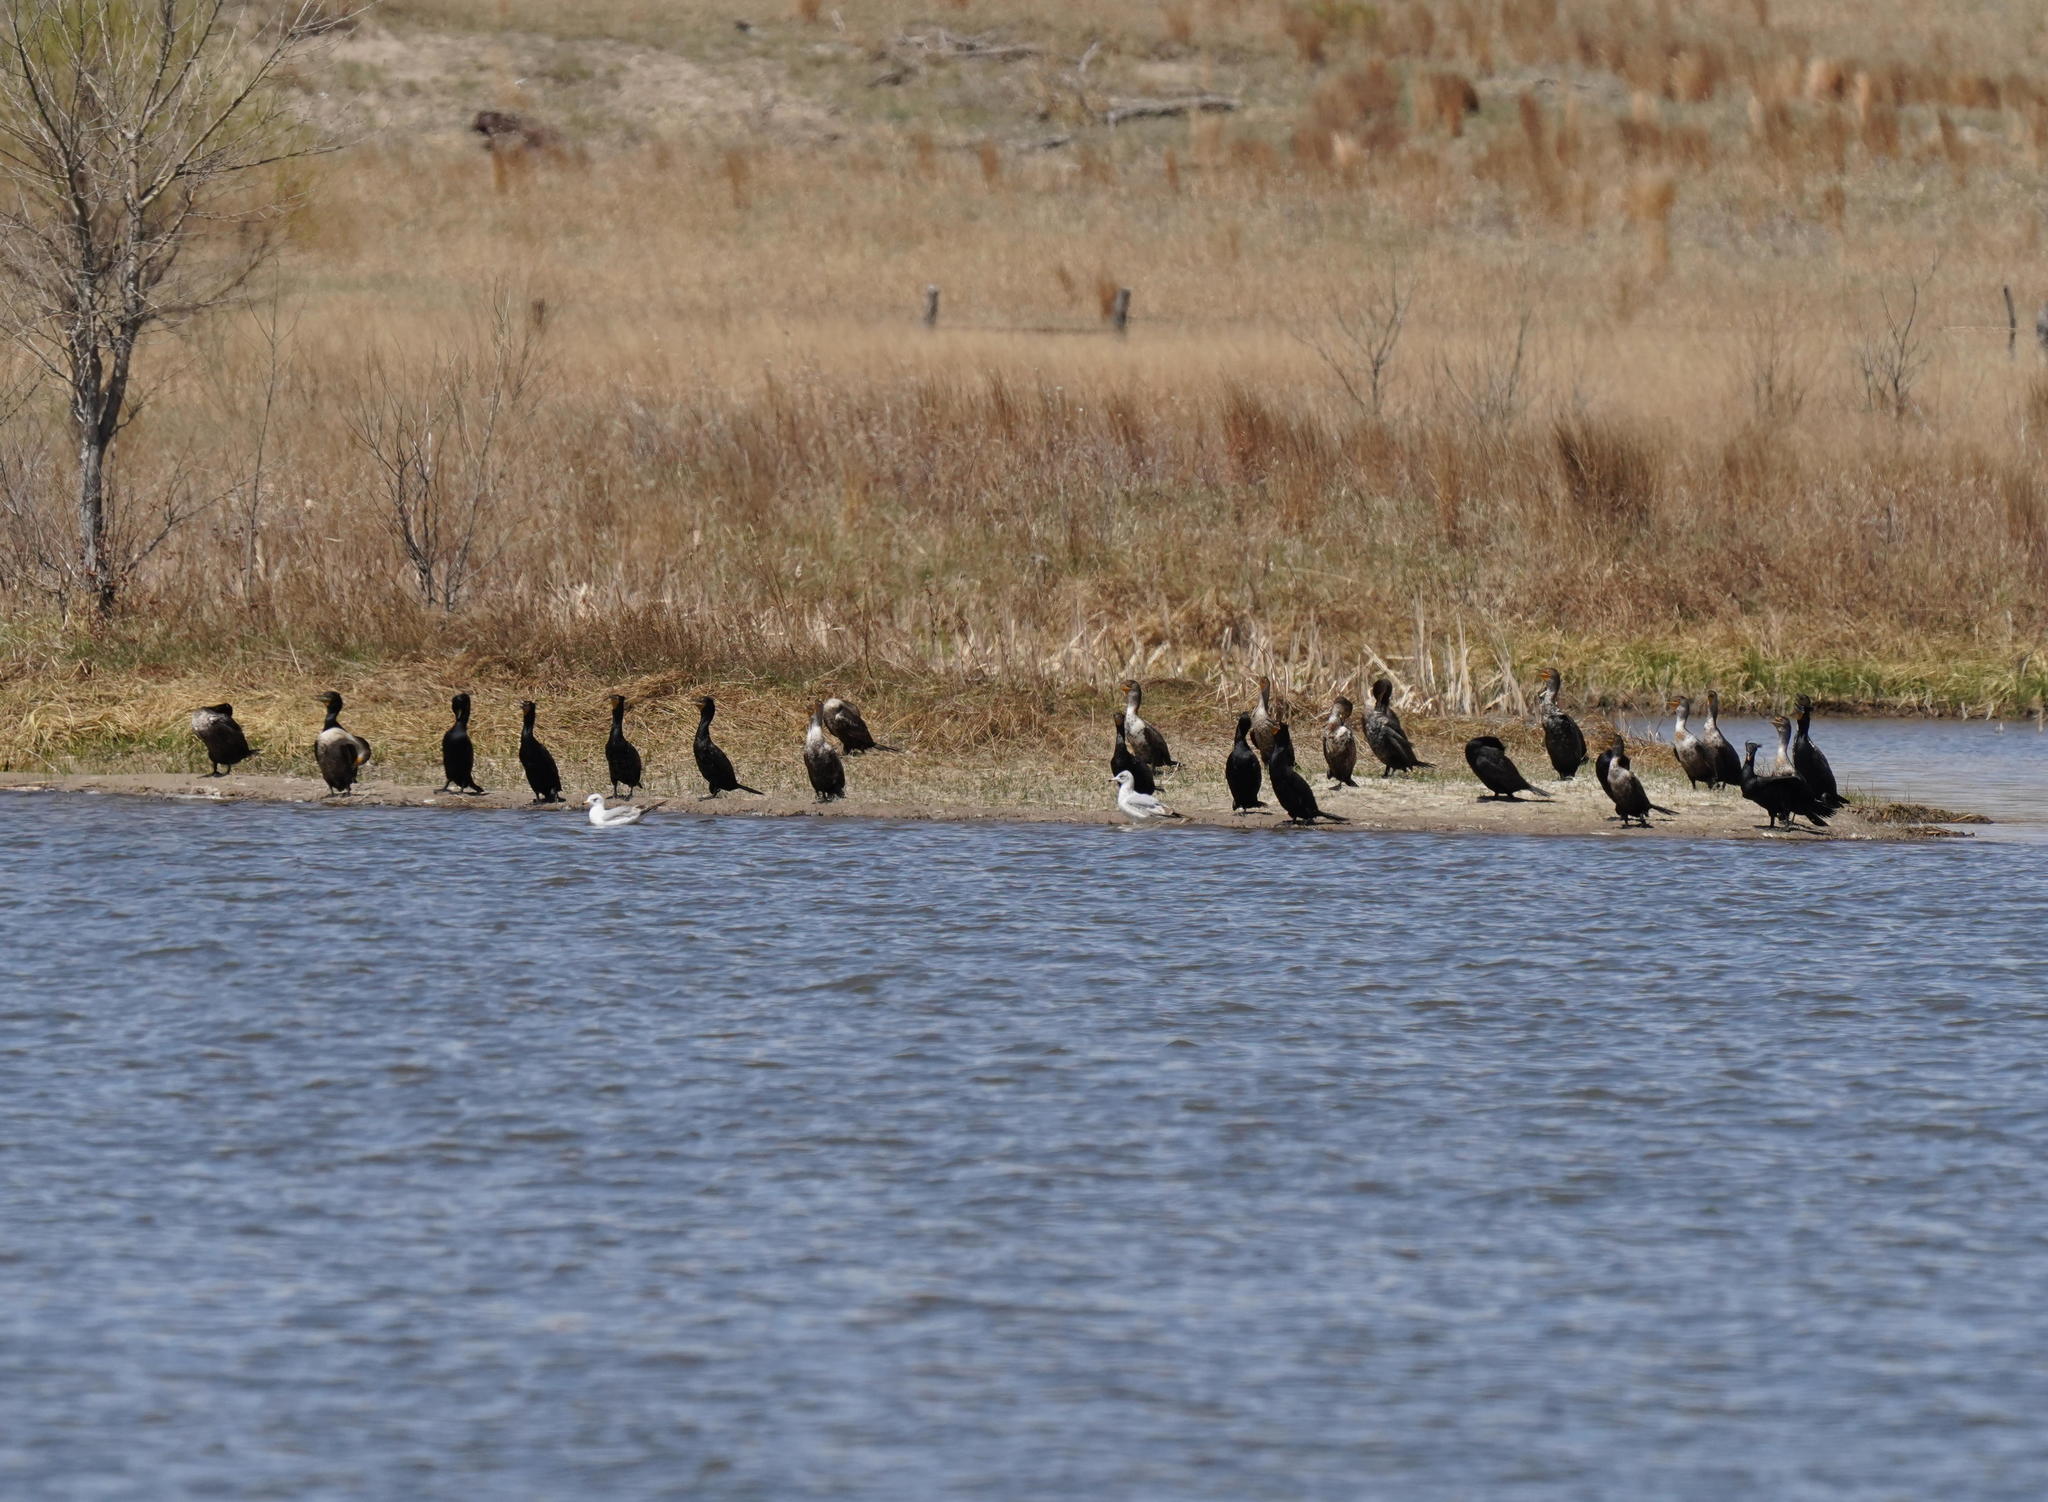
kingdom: Animalia
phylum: Chordata
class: Aves
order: Suliformes
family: Phalacrocoracidae
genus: Phalacrocorax
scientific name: Phalacrocorax auritus
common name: Double-crested cormorant
